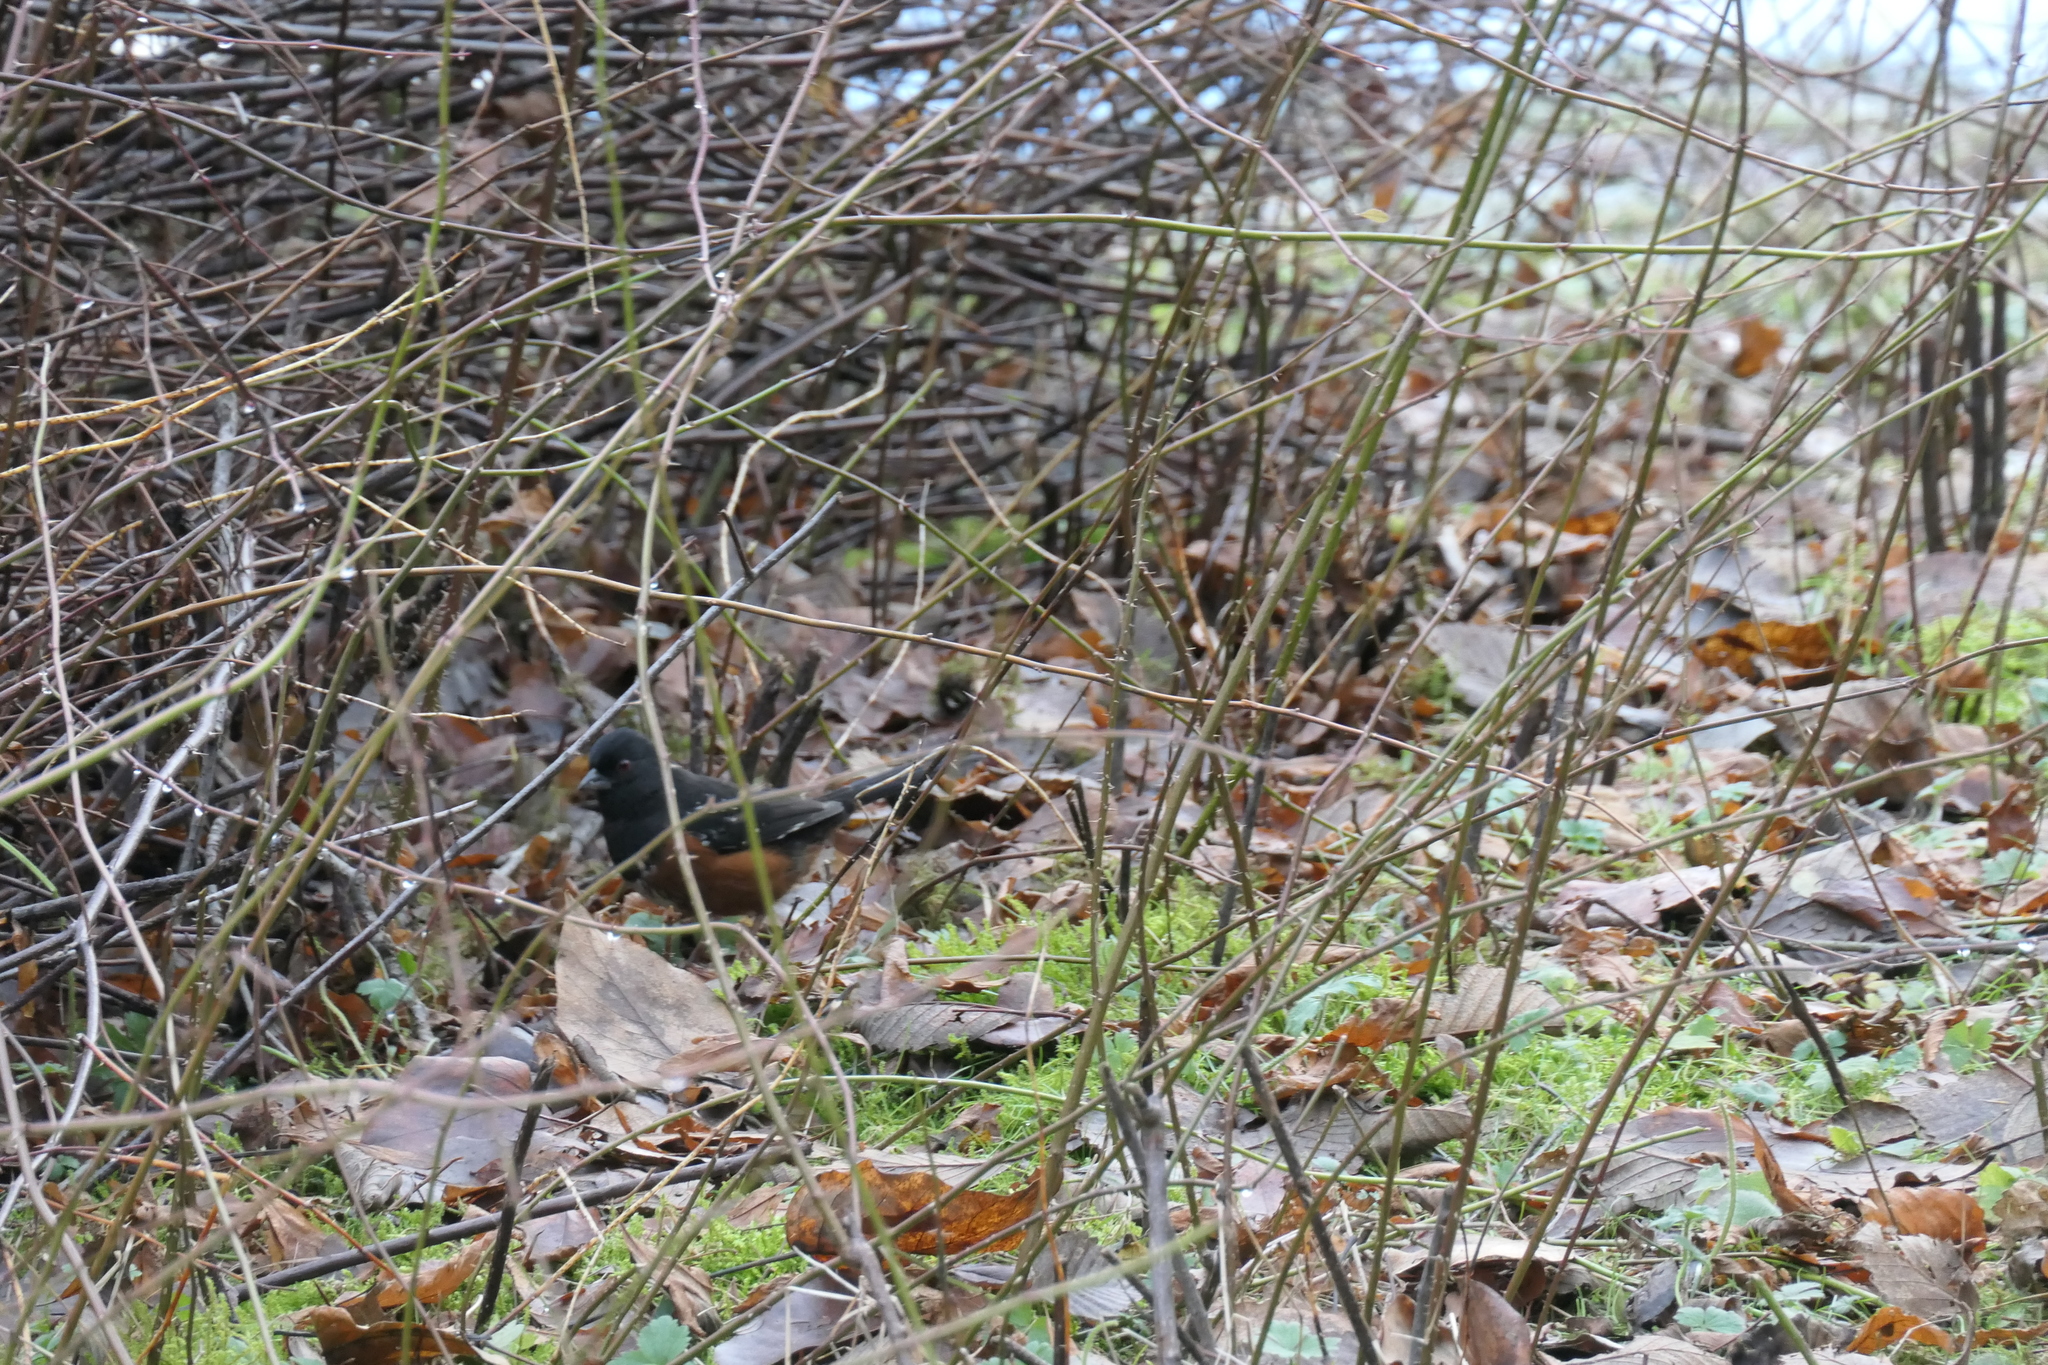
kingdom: Animalia
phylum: Chordata
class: Aves
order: Passeriformes
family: Passerellidae
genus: Pipilo
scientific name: Pipilo maculatus
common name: Spotted towhee
